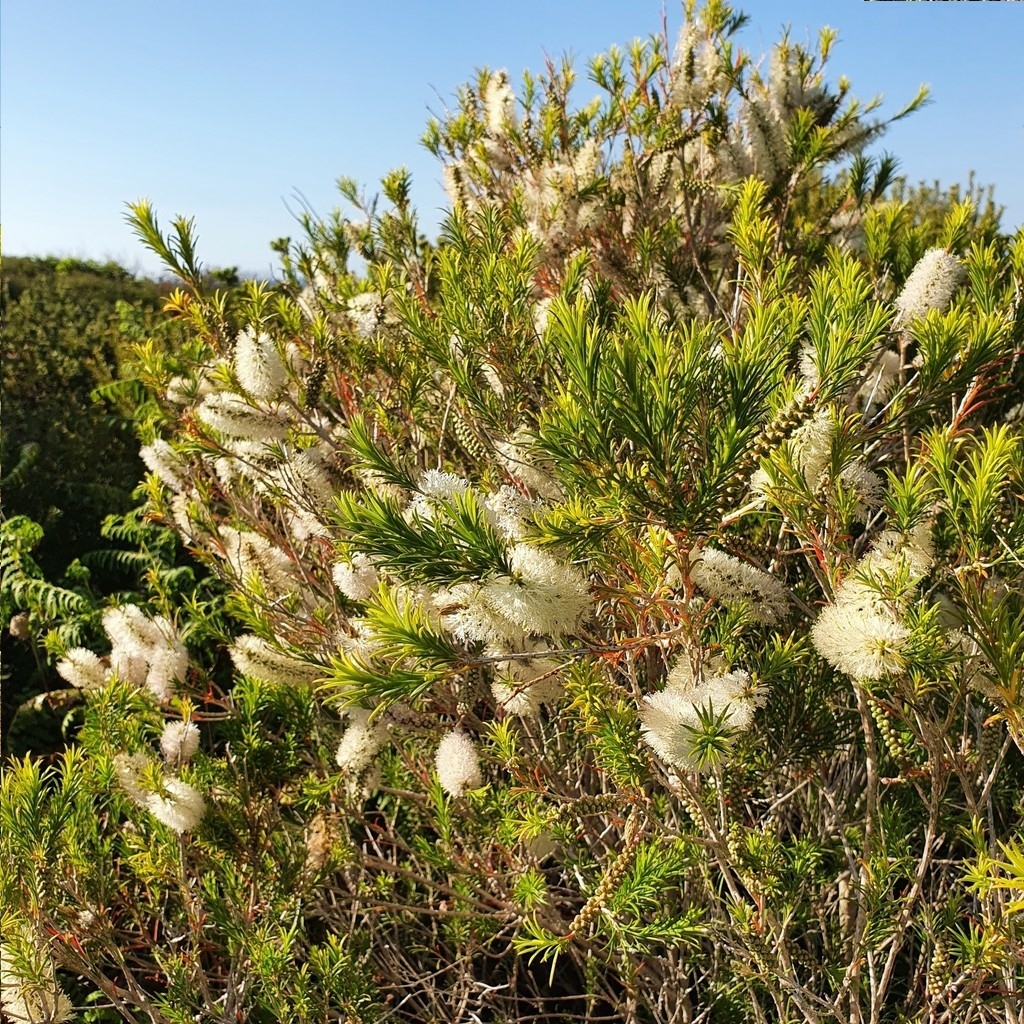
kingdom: Plantae
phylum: Tracheophyta
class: Magnoliopsida
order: Myrtales
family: Myrtaceae
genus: Melaleuca
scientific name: Melaleuca armillaris
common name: Bracelet honey myrtle
